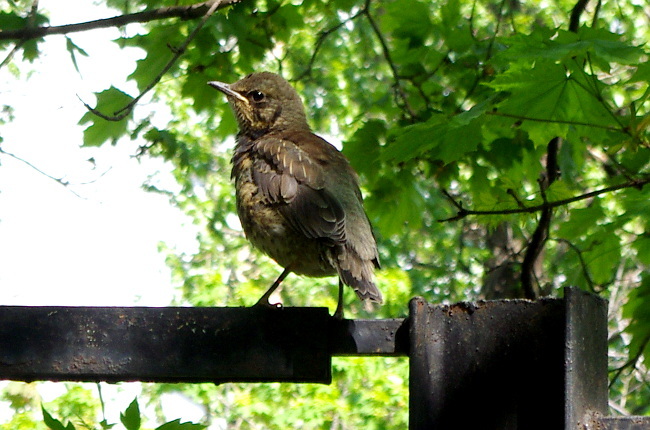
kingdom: Animalia
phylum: Chordata
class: Aves
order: Passeriformes
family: Turdidae
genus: Turdus
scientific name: Turdus pilaris
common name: Fieldfare
